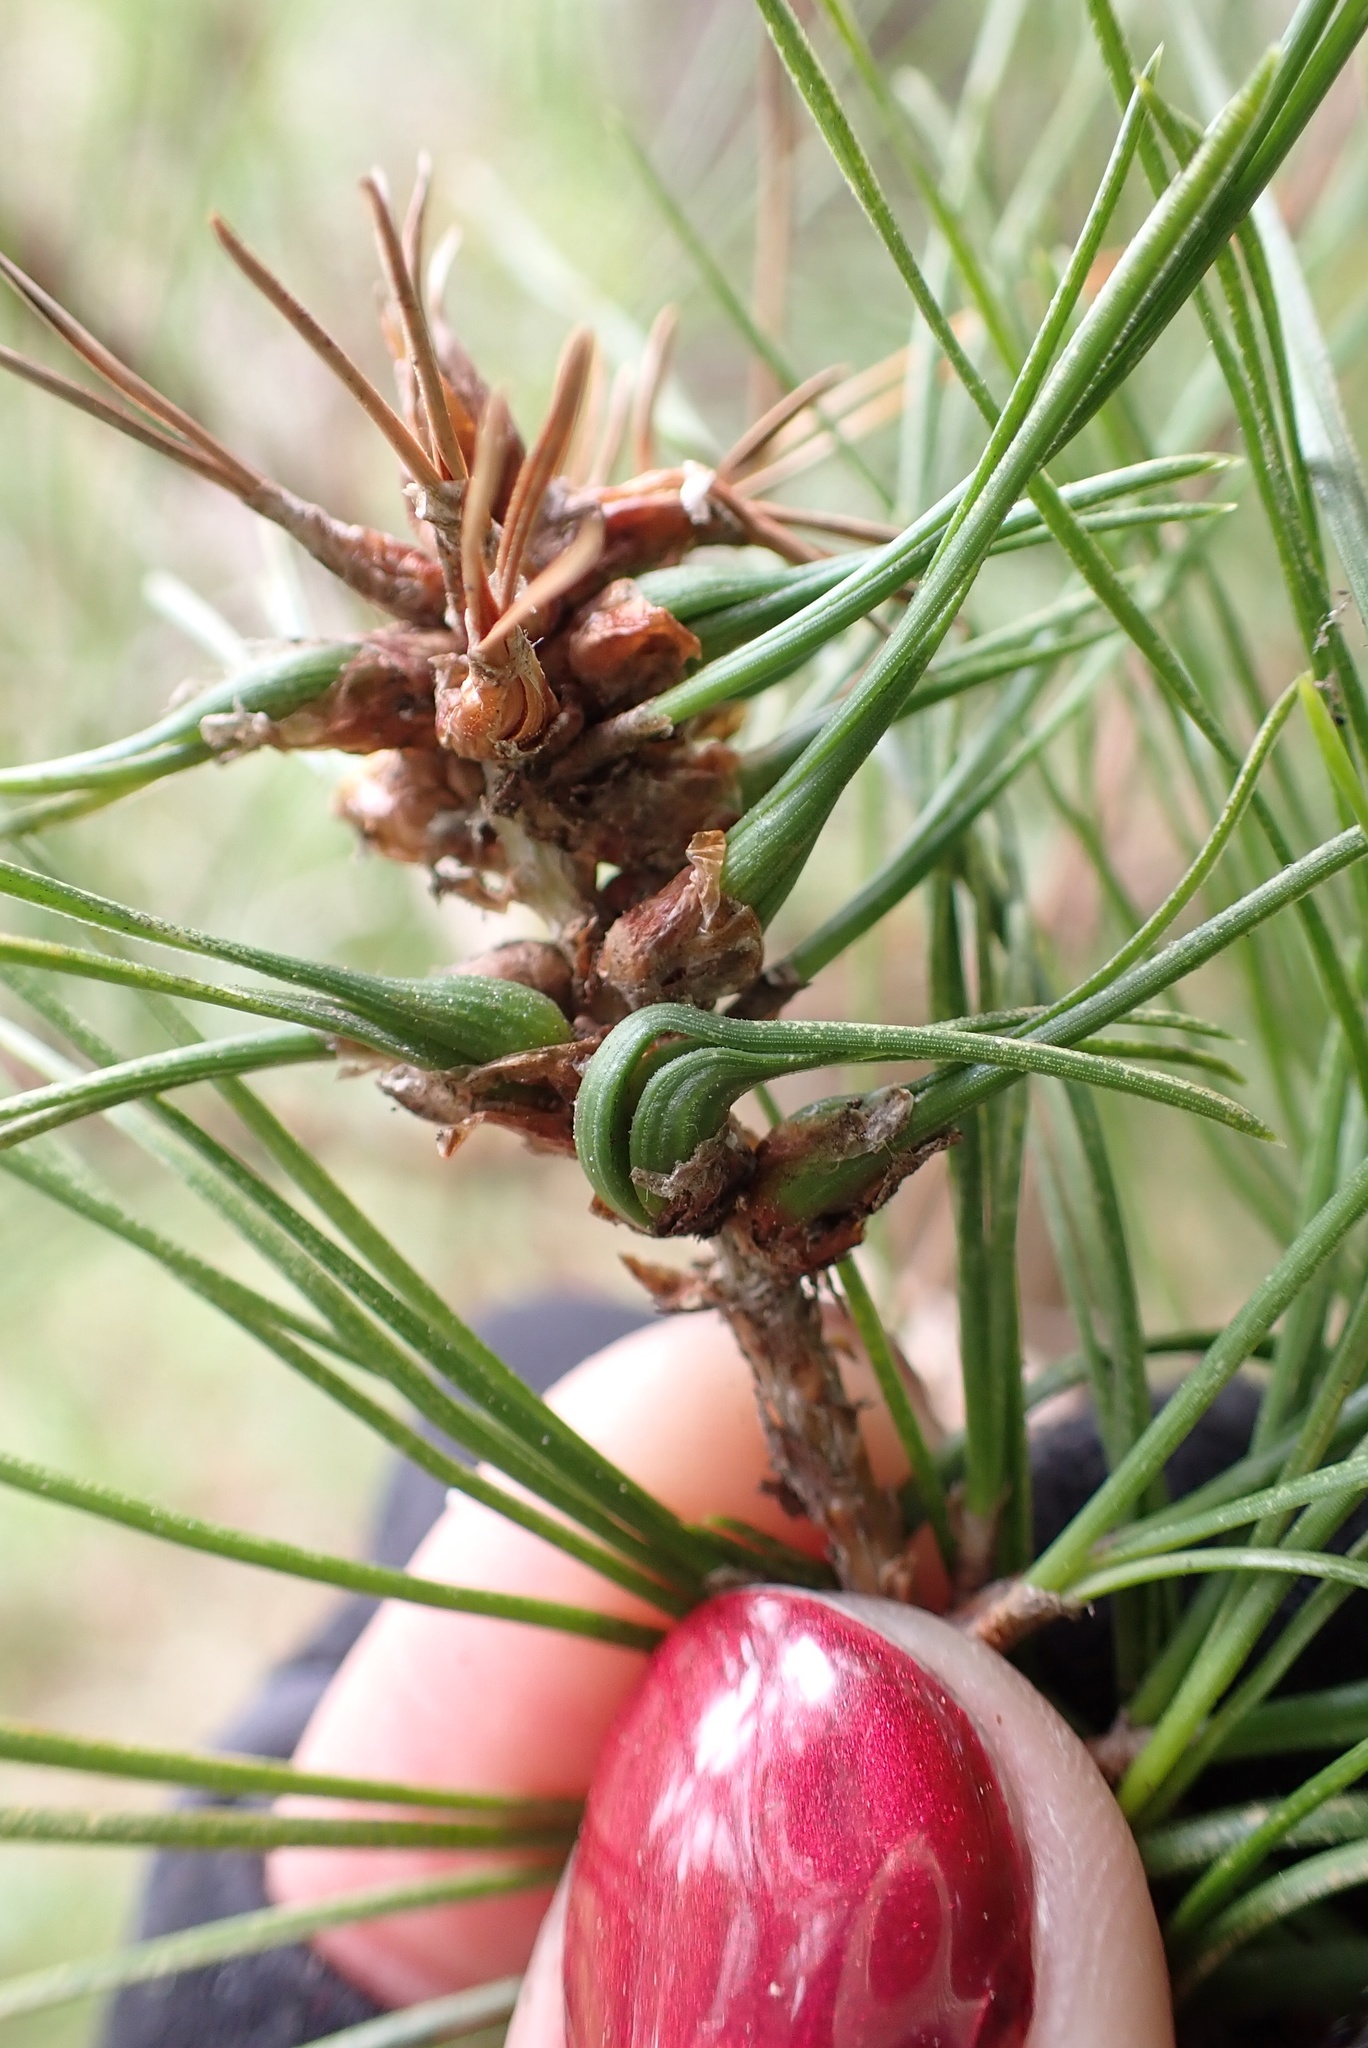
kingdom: Animalia
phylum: Arthropoda
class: Insecta
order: Diptera
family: Cecidomyiidae
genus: Thecodiplosis
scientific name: Thecodiplosis piniradiatae
